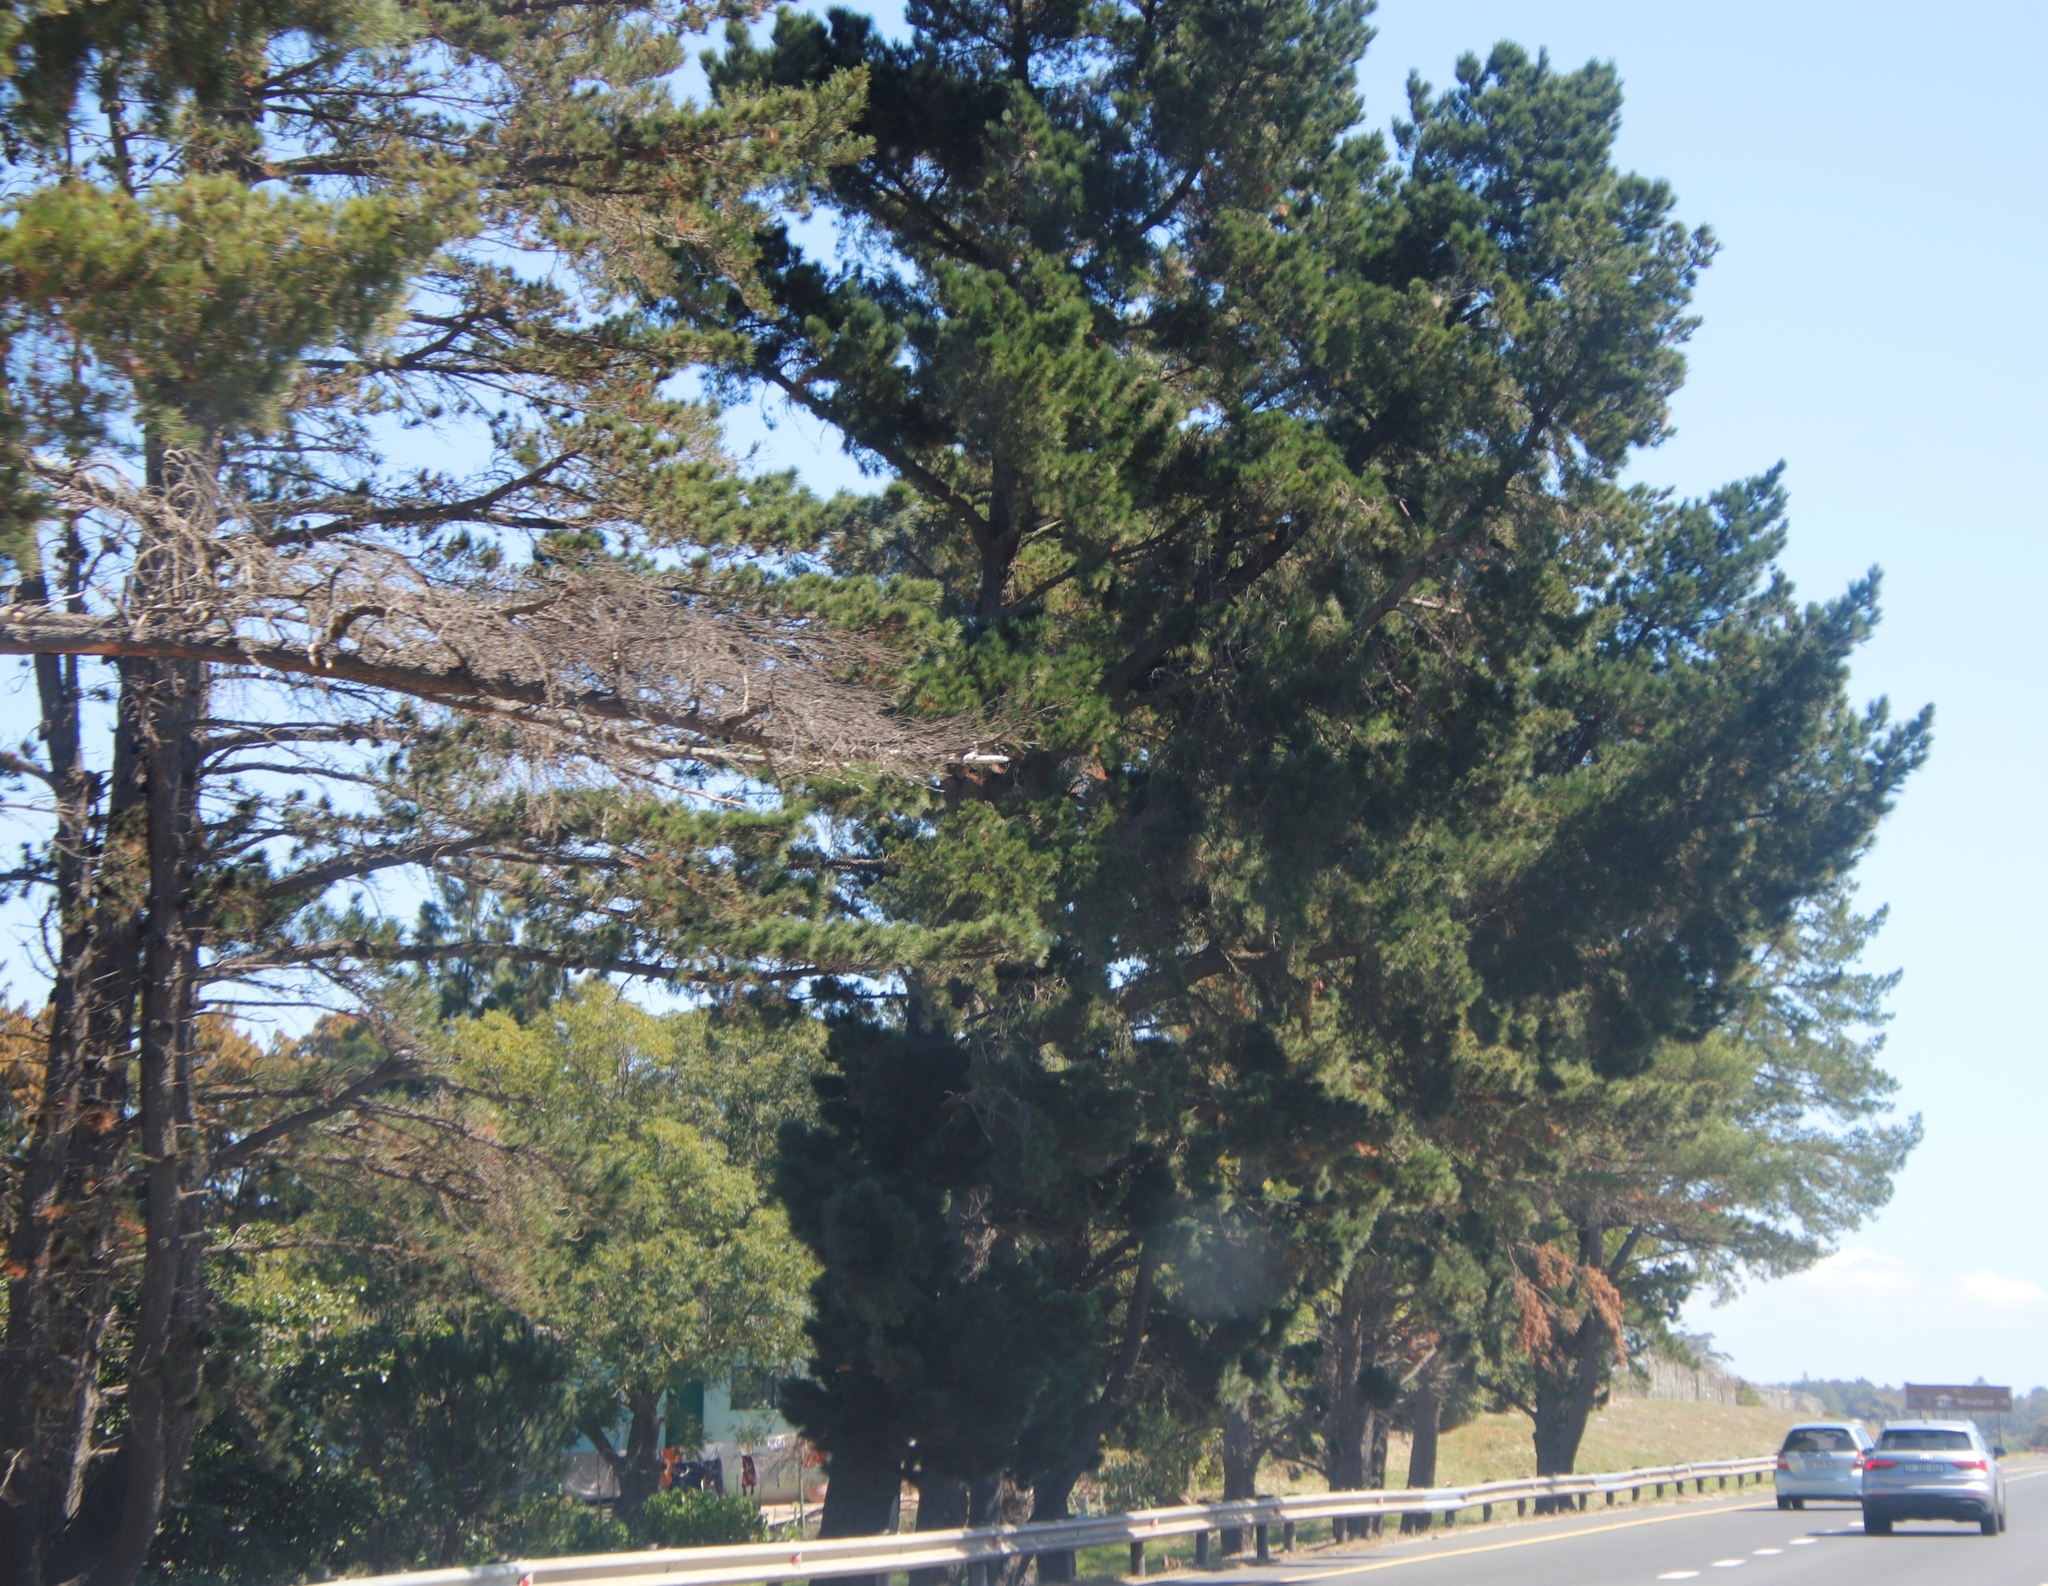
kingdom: Plantae
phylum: Tracheophyta
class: Pinopsida
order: Pinales
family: Pinaceae
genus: Pinus
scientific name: Pinus radiata
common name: Monterey pine
